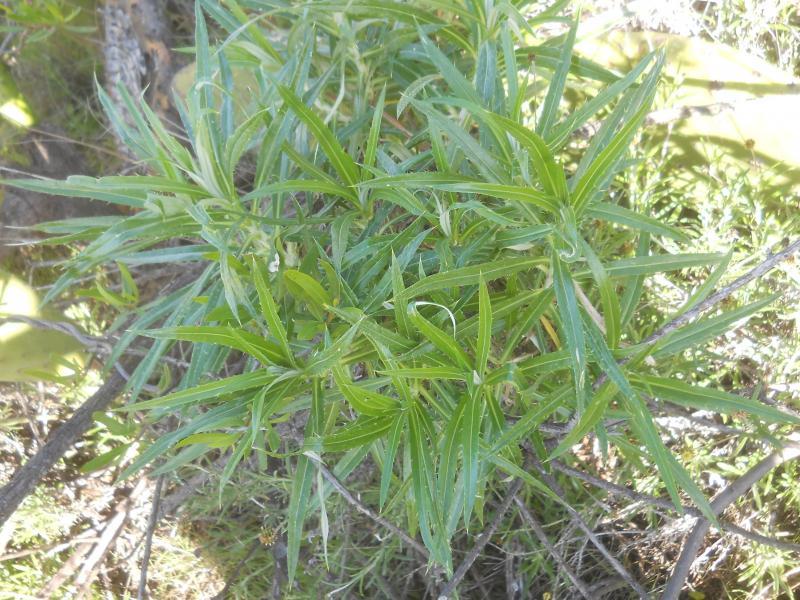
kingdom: Plantae
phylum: Tracheophyta
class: Magnoliopsida
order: Asterales
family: Asteraceae
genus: Carlina
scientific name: Carlina salicifolia
